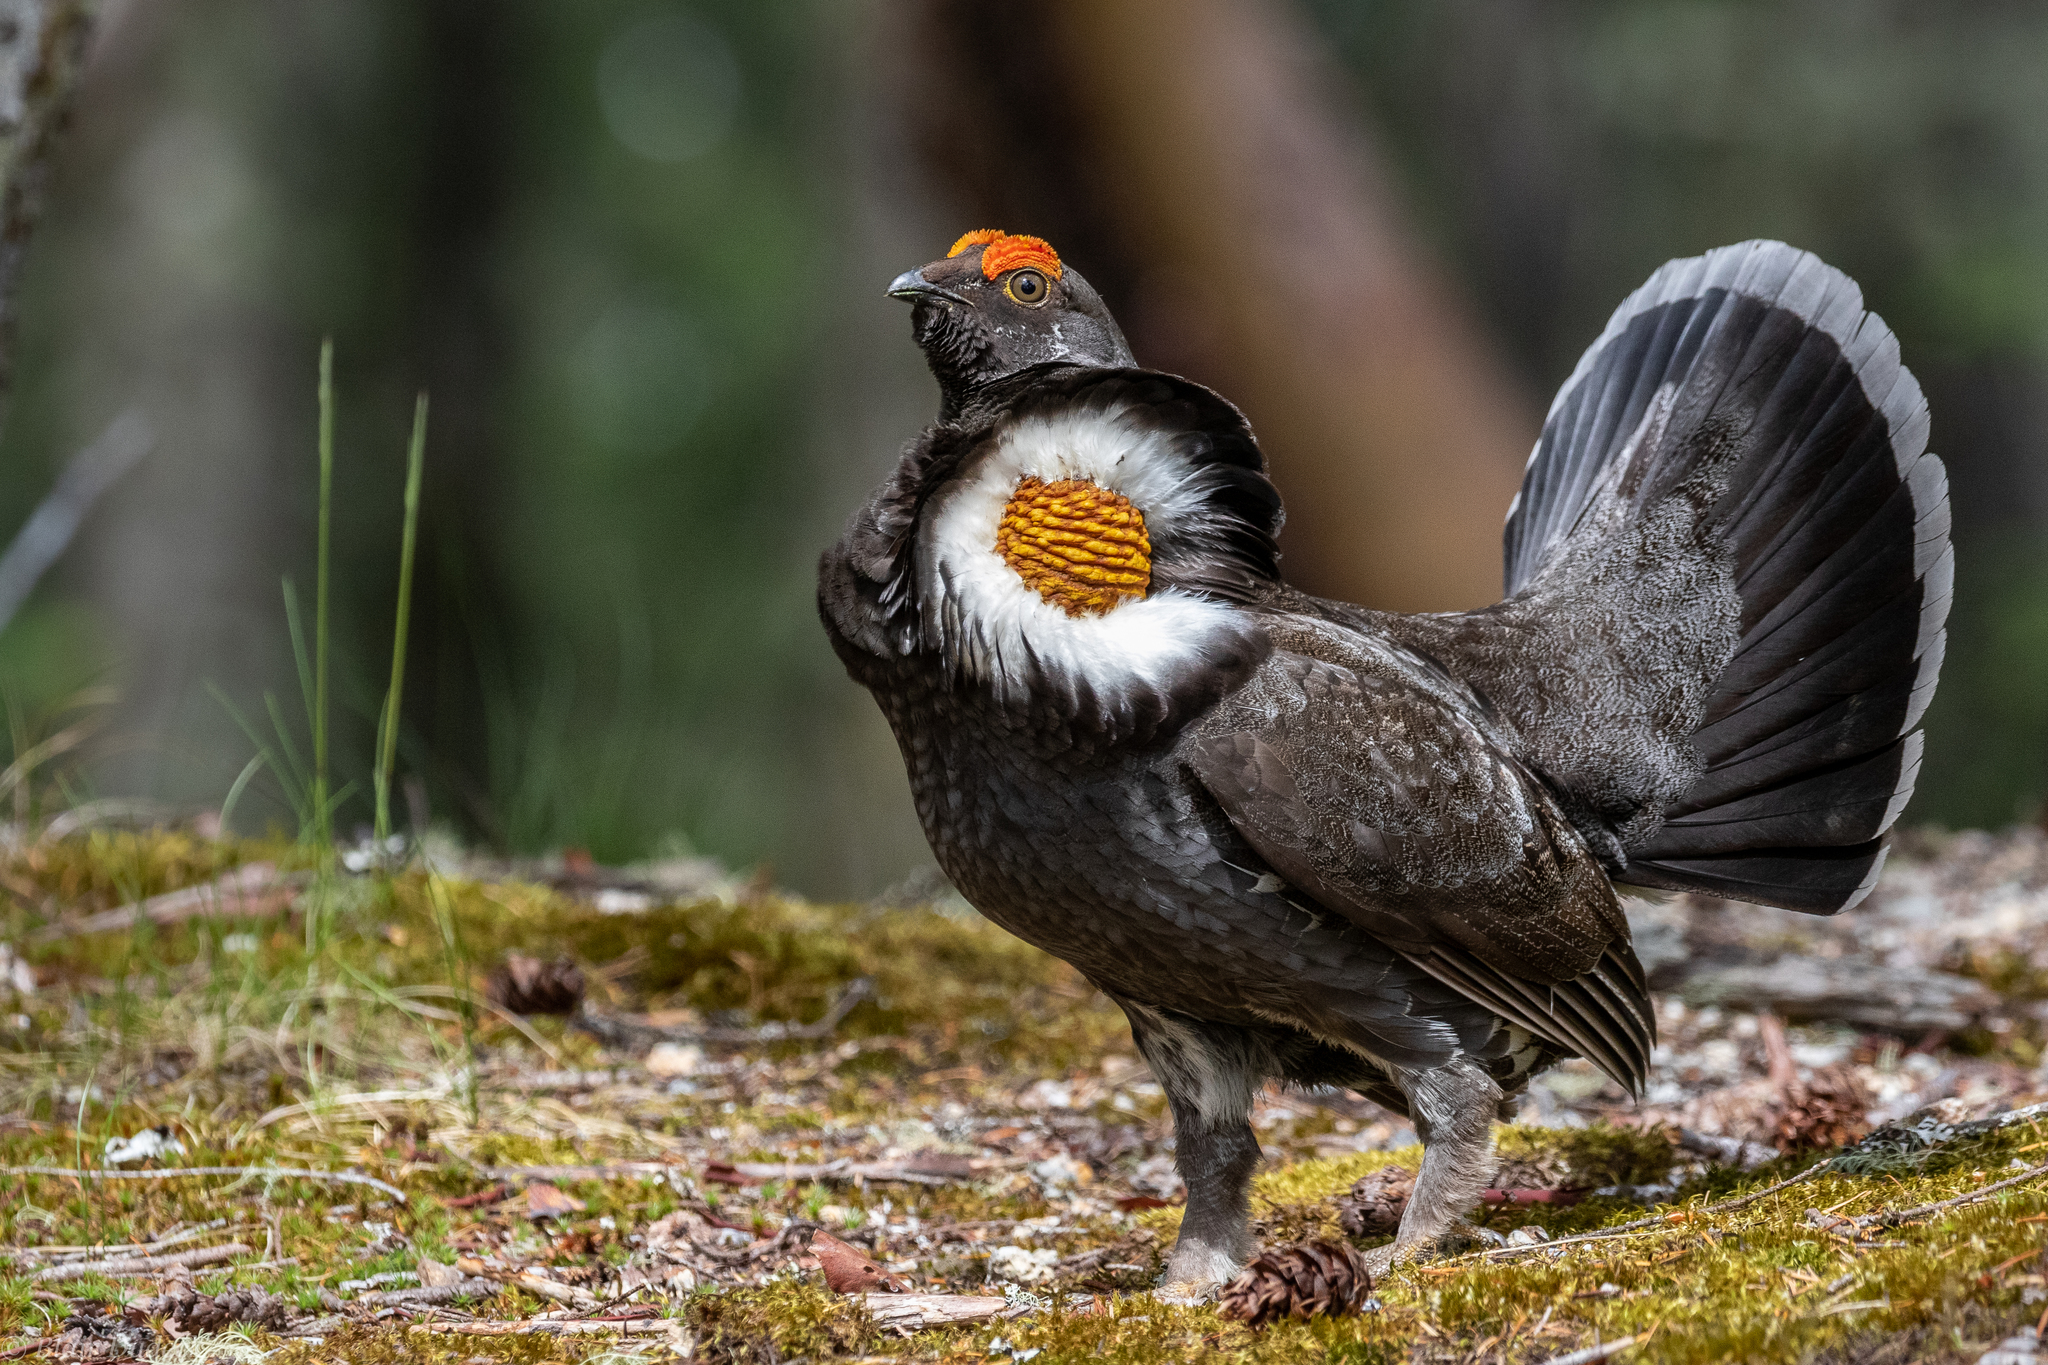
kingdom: Animalia
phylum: Chordata
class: Aves
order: Galliformes
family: Phasianidae
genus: Dendragapus
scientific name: Dendragapus fuliginosus
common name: Sooty grouse
